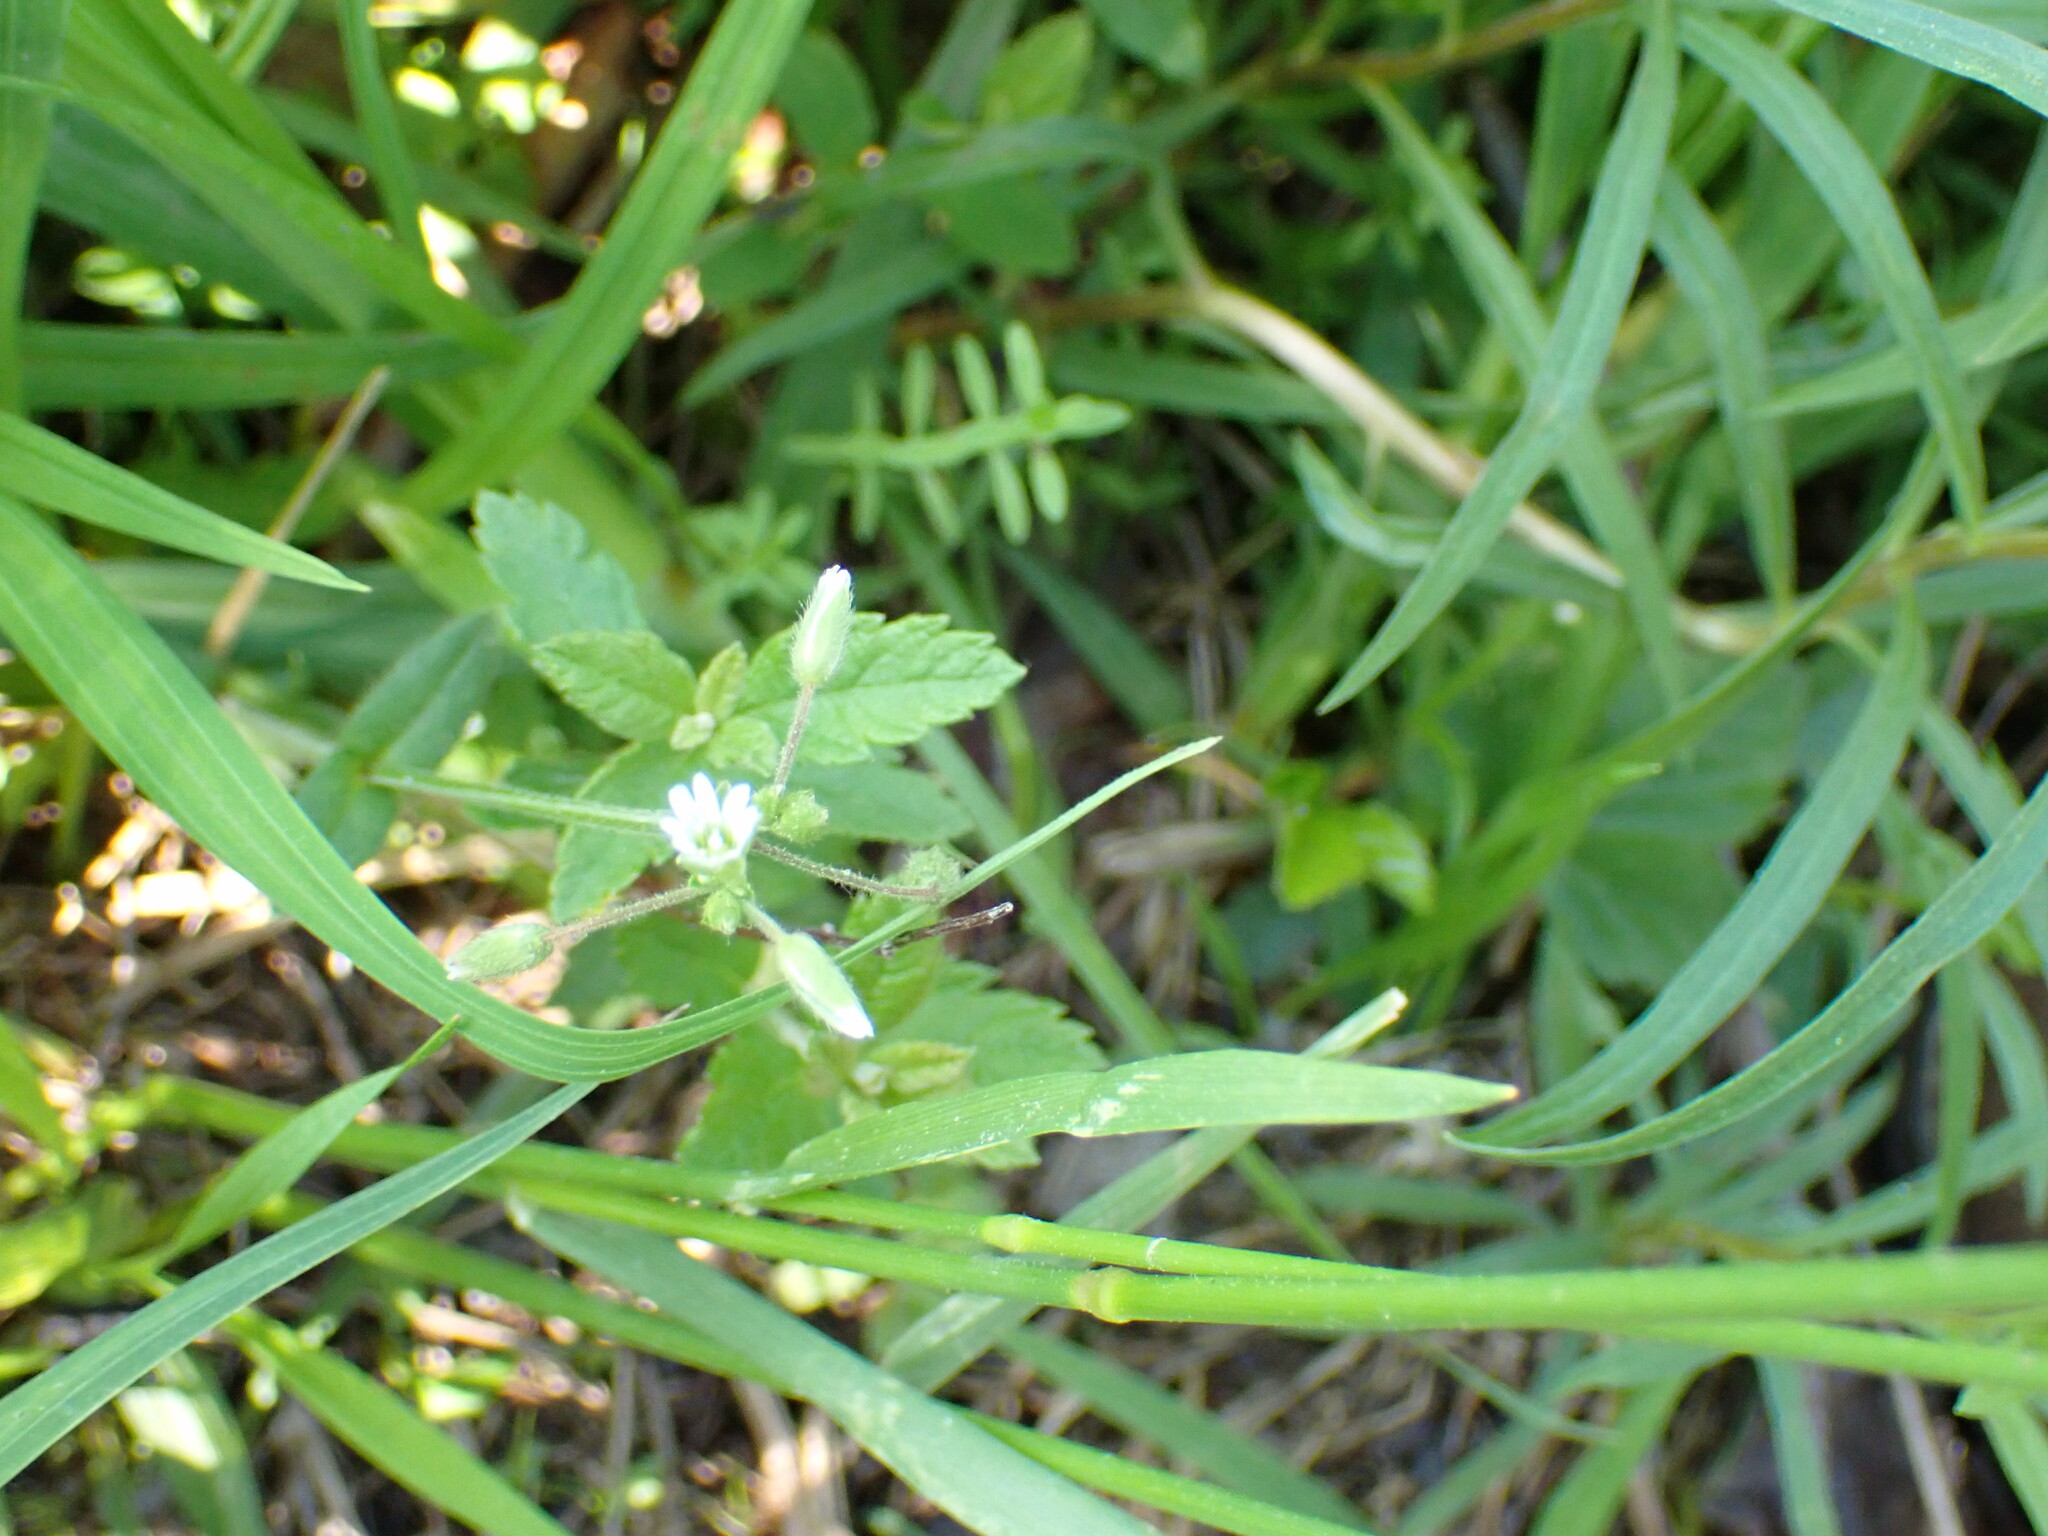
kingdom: Plantae
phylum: Tracheophyta
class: Magnoliopsida
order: Caryophyllales
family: Caryophyllaceae
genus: Cerastium
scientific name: Cerastium fontanum
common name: Common mouse-ear
